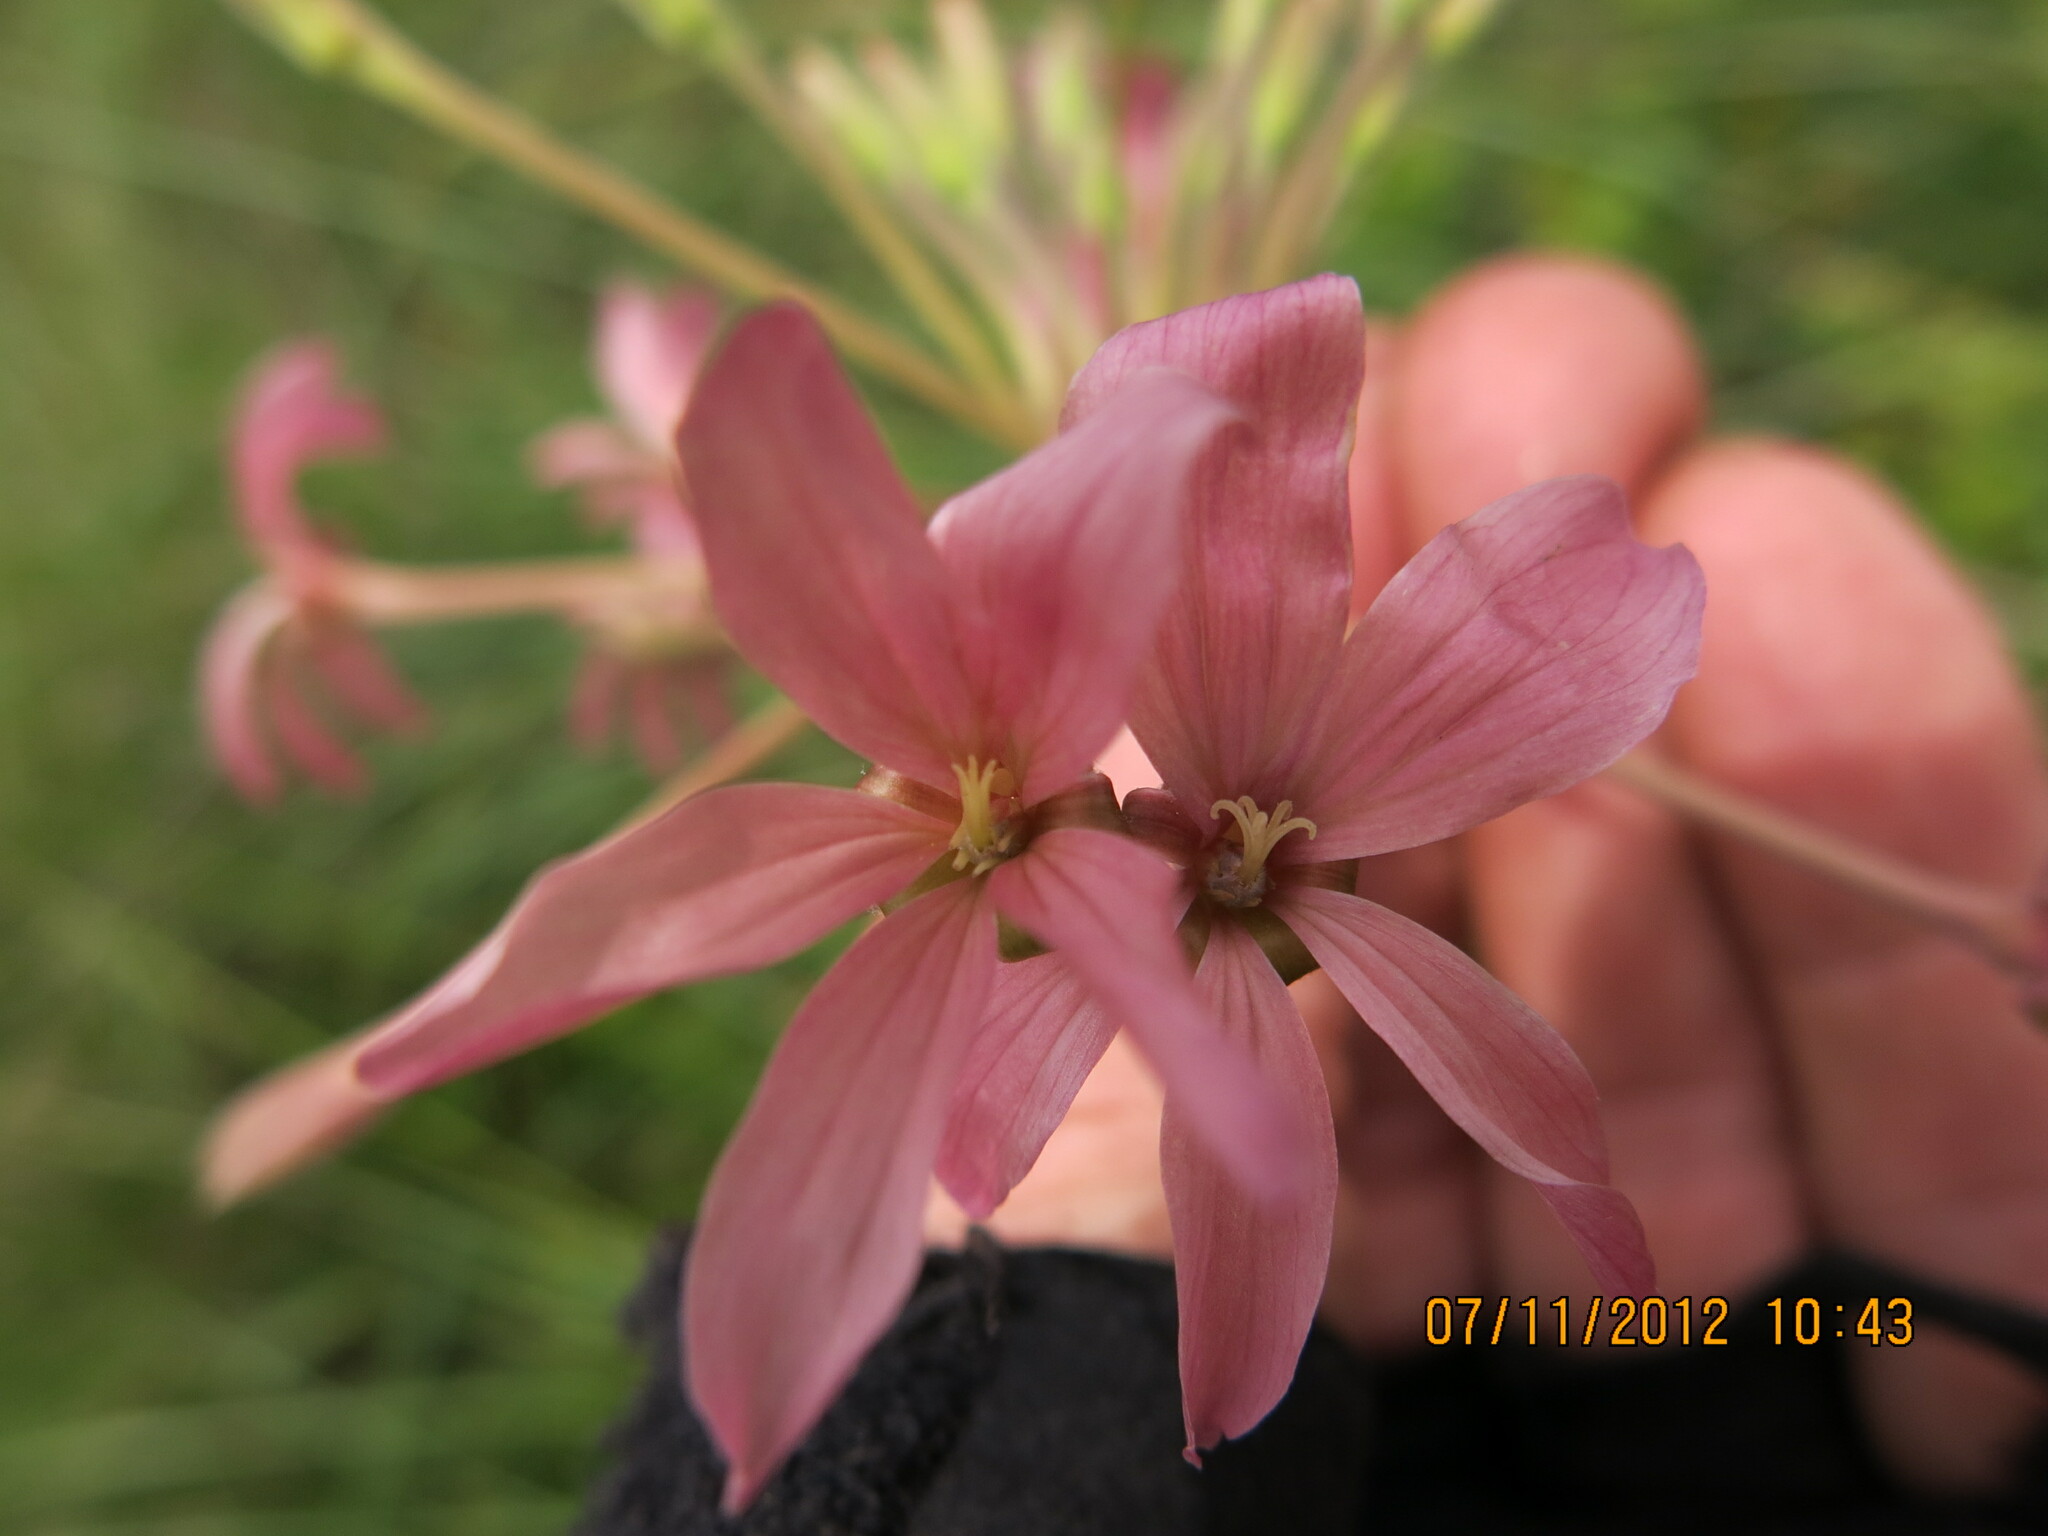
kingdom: Plantae
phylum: Tracheophyta
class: Magnoliopsida
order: Geraniales
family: Geraniaceae
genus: Pelargonium
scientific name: Pelargonium luridum
